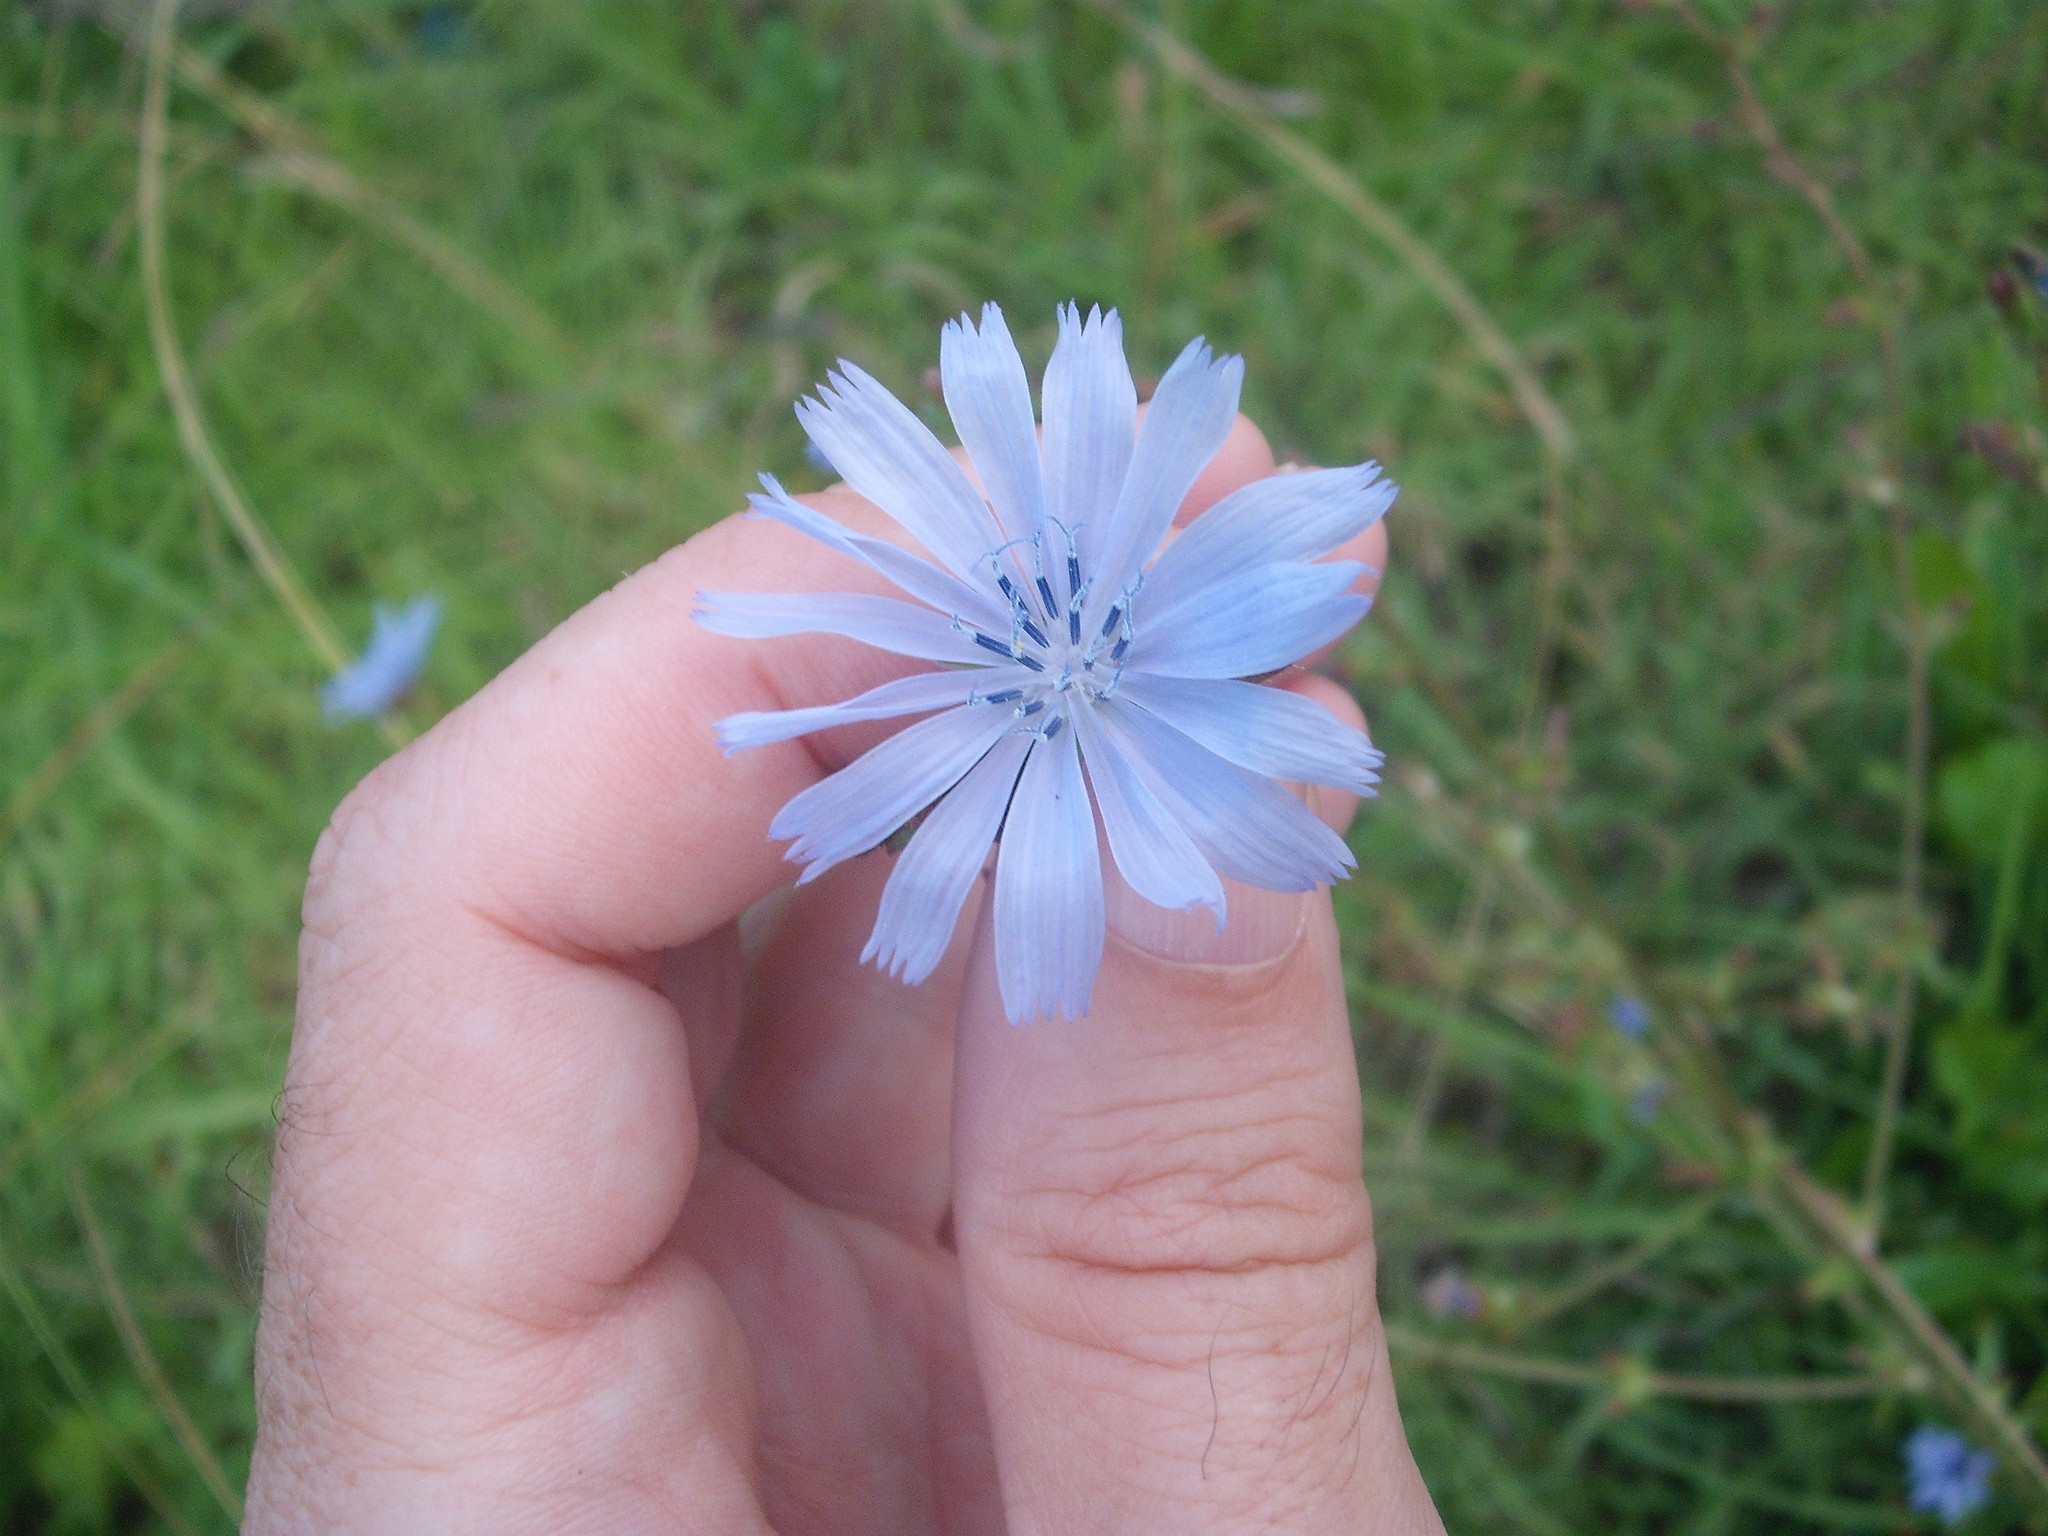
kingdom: Plantae
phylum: Tracheophyta
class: Magnoliopsida
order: Asterales
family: Asteraceae
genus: Cichorium
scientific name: Cichorium intybus
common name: Chicory
